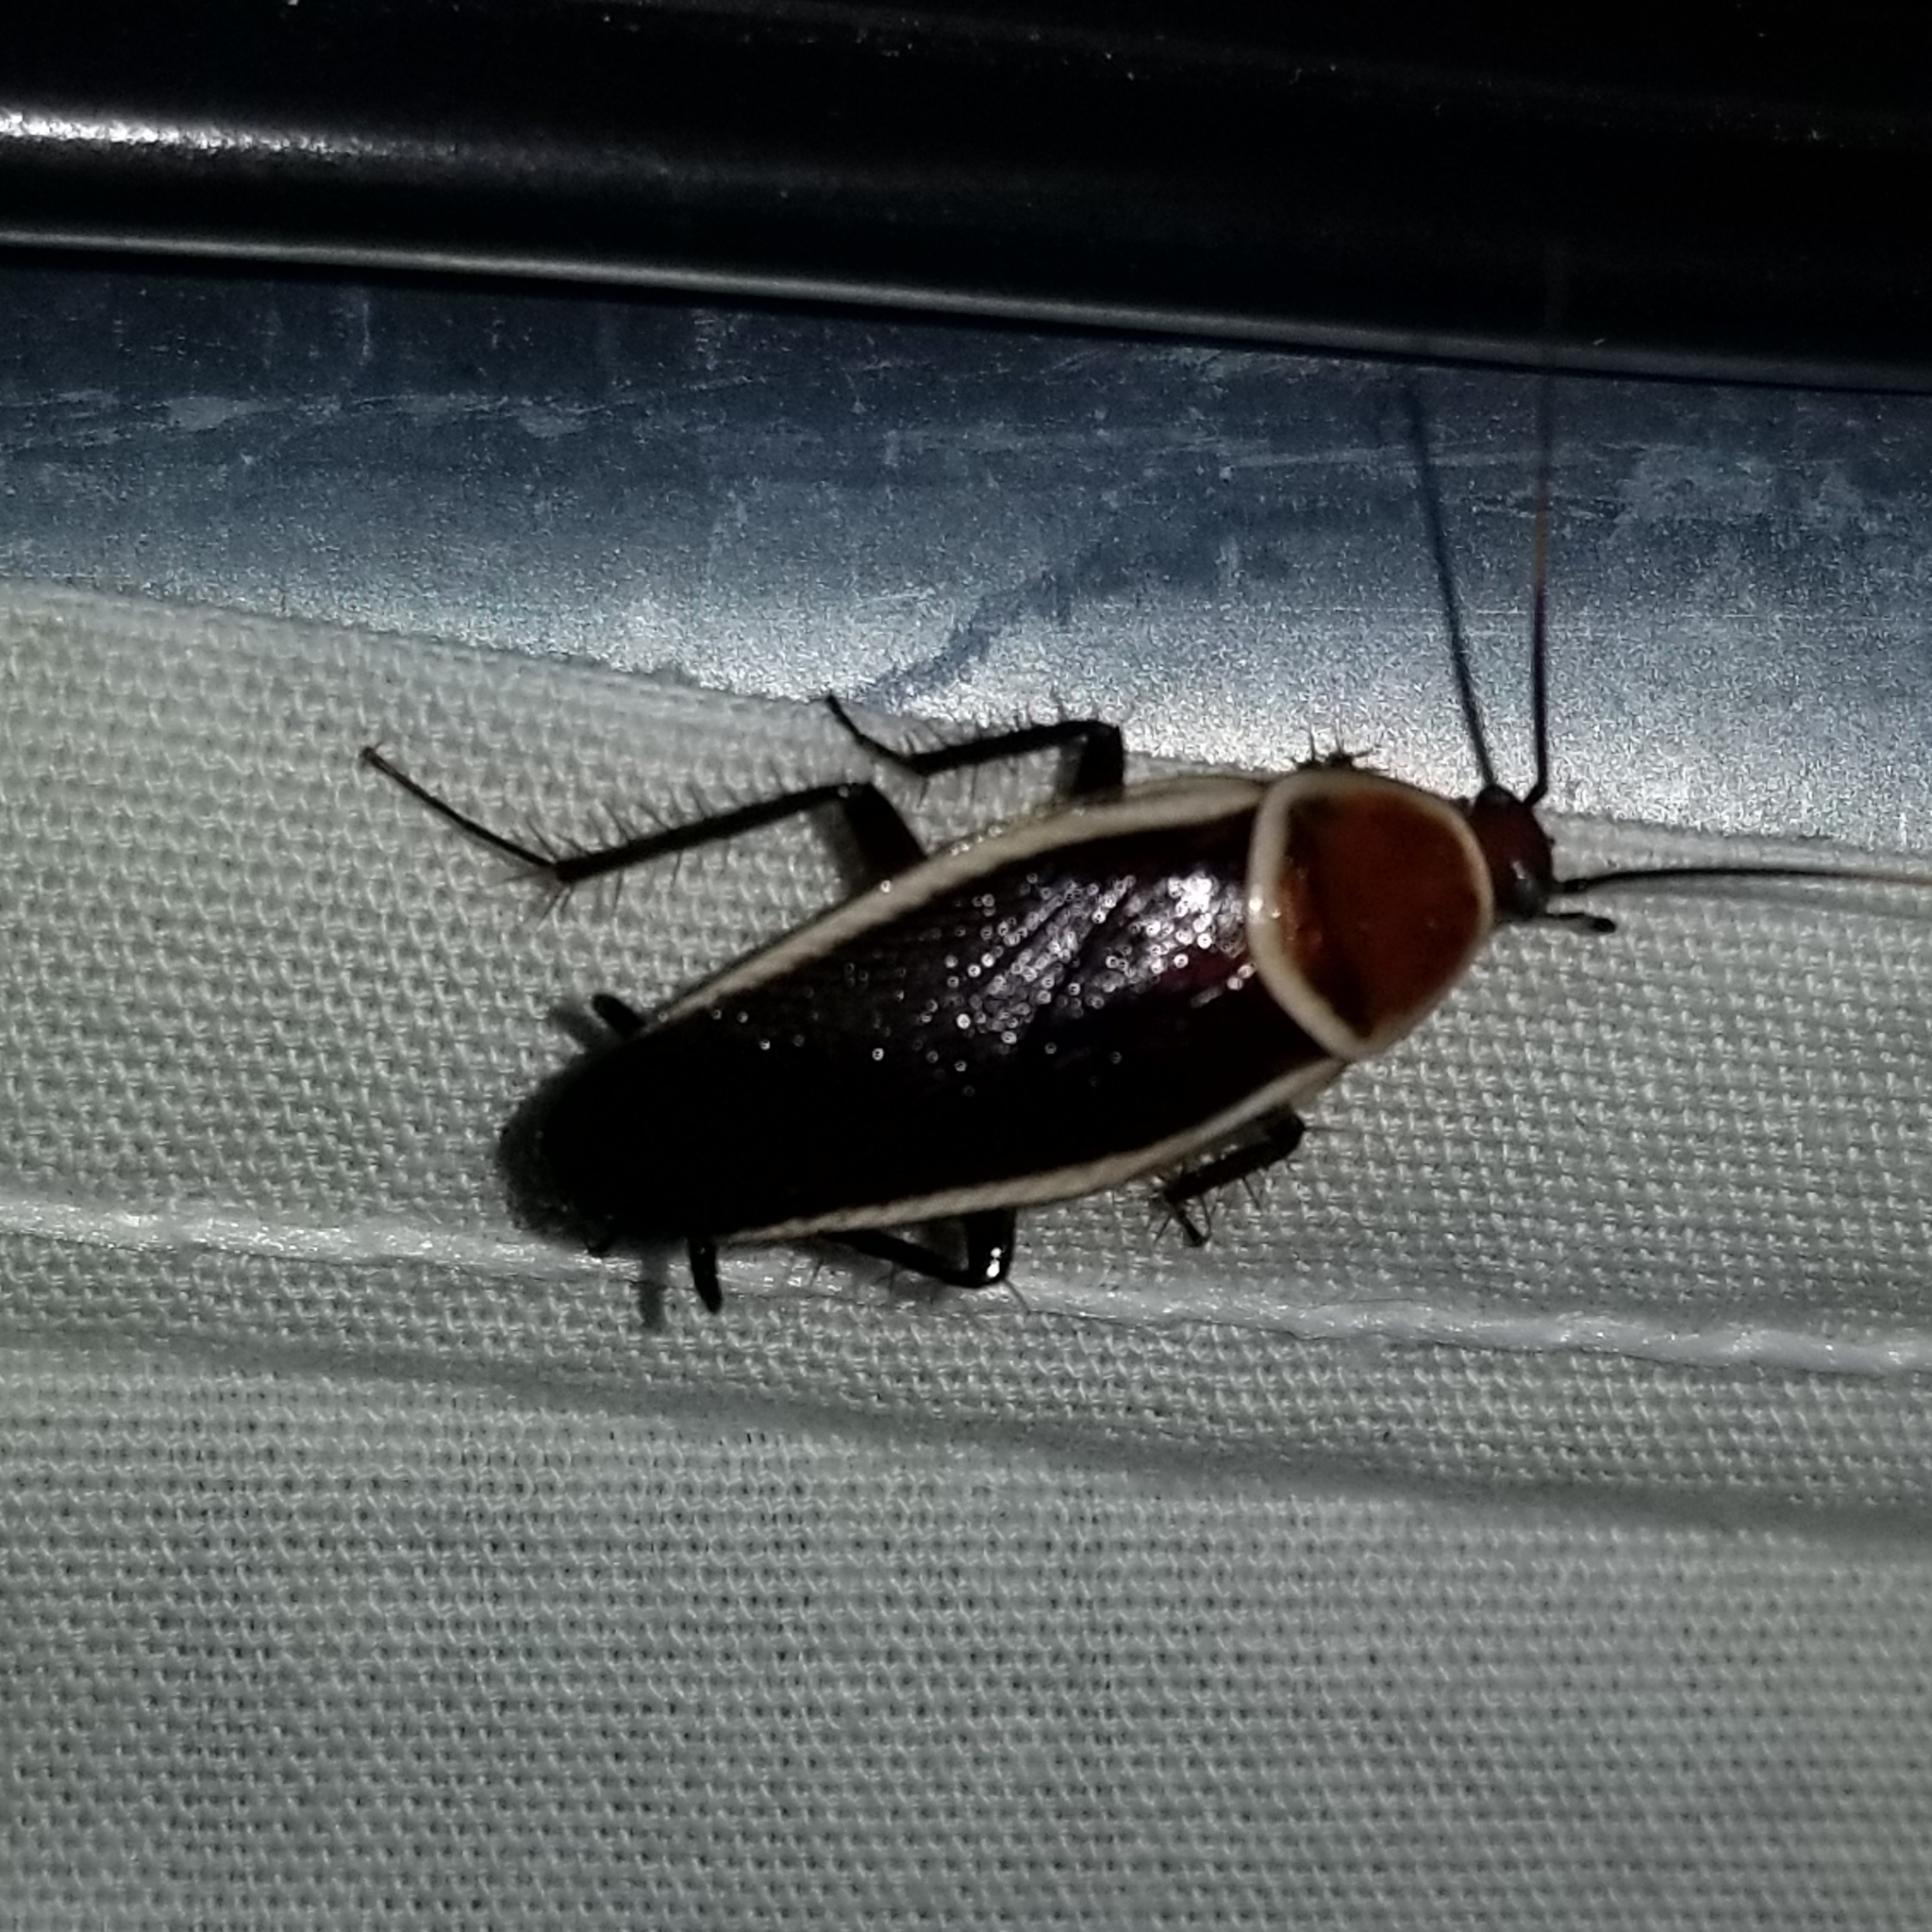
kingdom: Animalia
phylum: Arthropoda
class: Insecta
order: Blattodea
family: Ectobiidae
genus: Pseudomops
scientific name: Pseudomops septentrionalis
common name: Pale-bordered field cockroach
